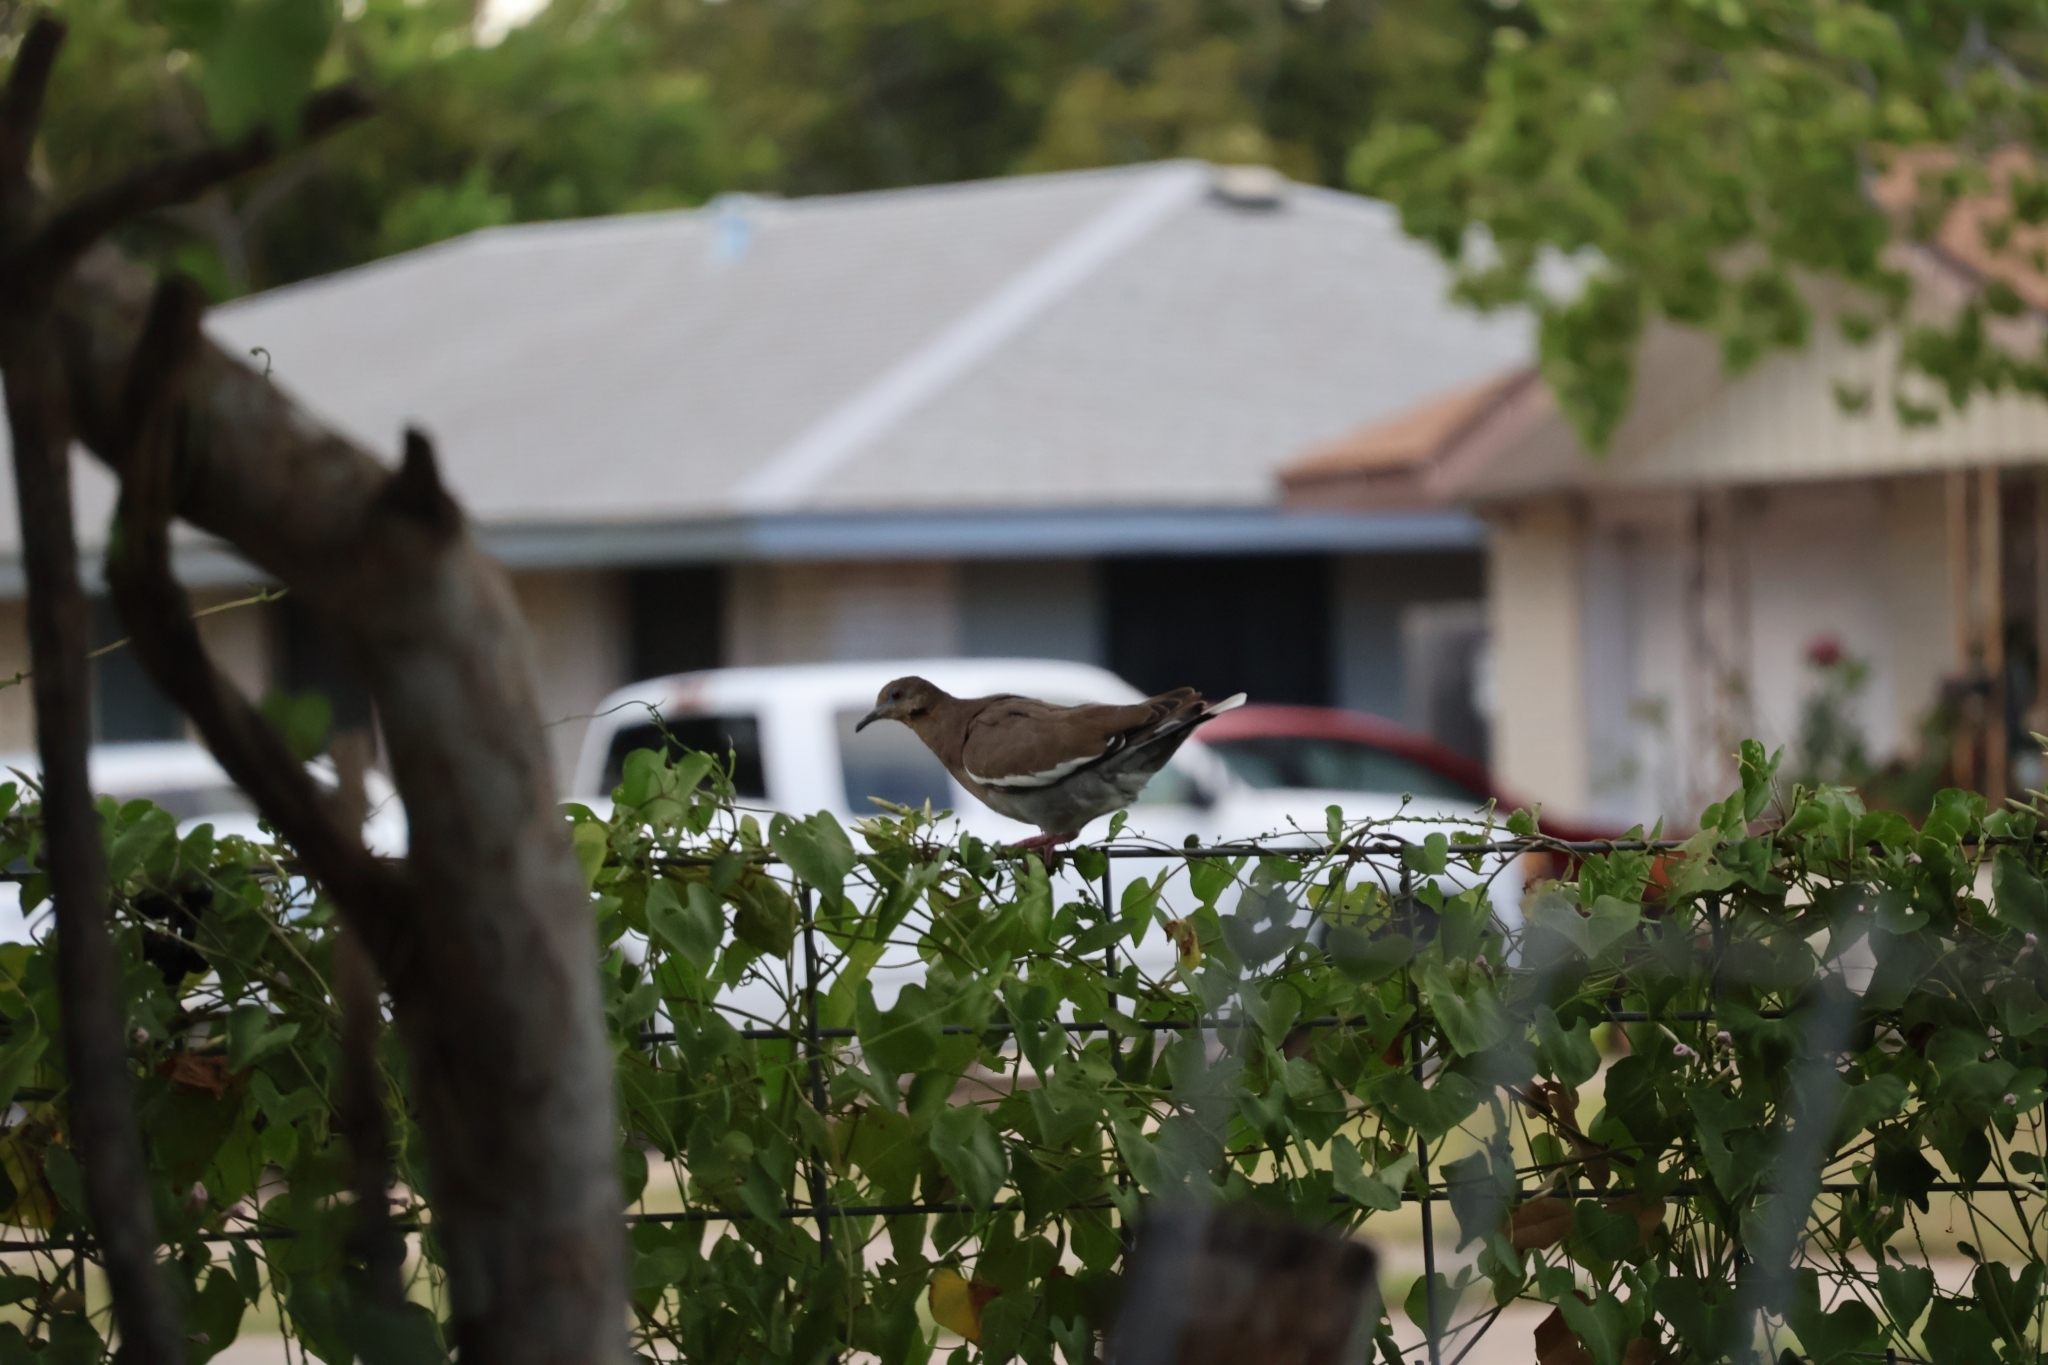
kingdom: Animalia
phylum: Chordata
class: Aves
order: Columbiformes
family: Columbidae
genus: Zenaida
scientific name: Zenaida asiatica
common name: White-winged dove
